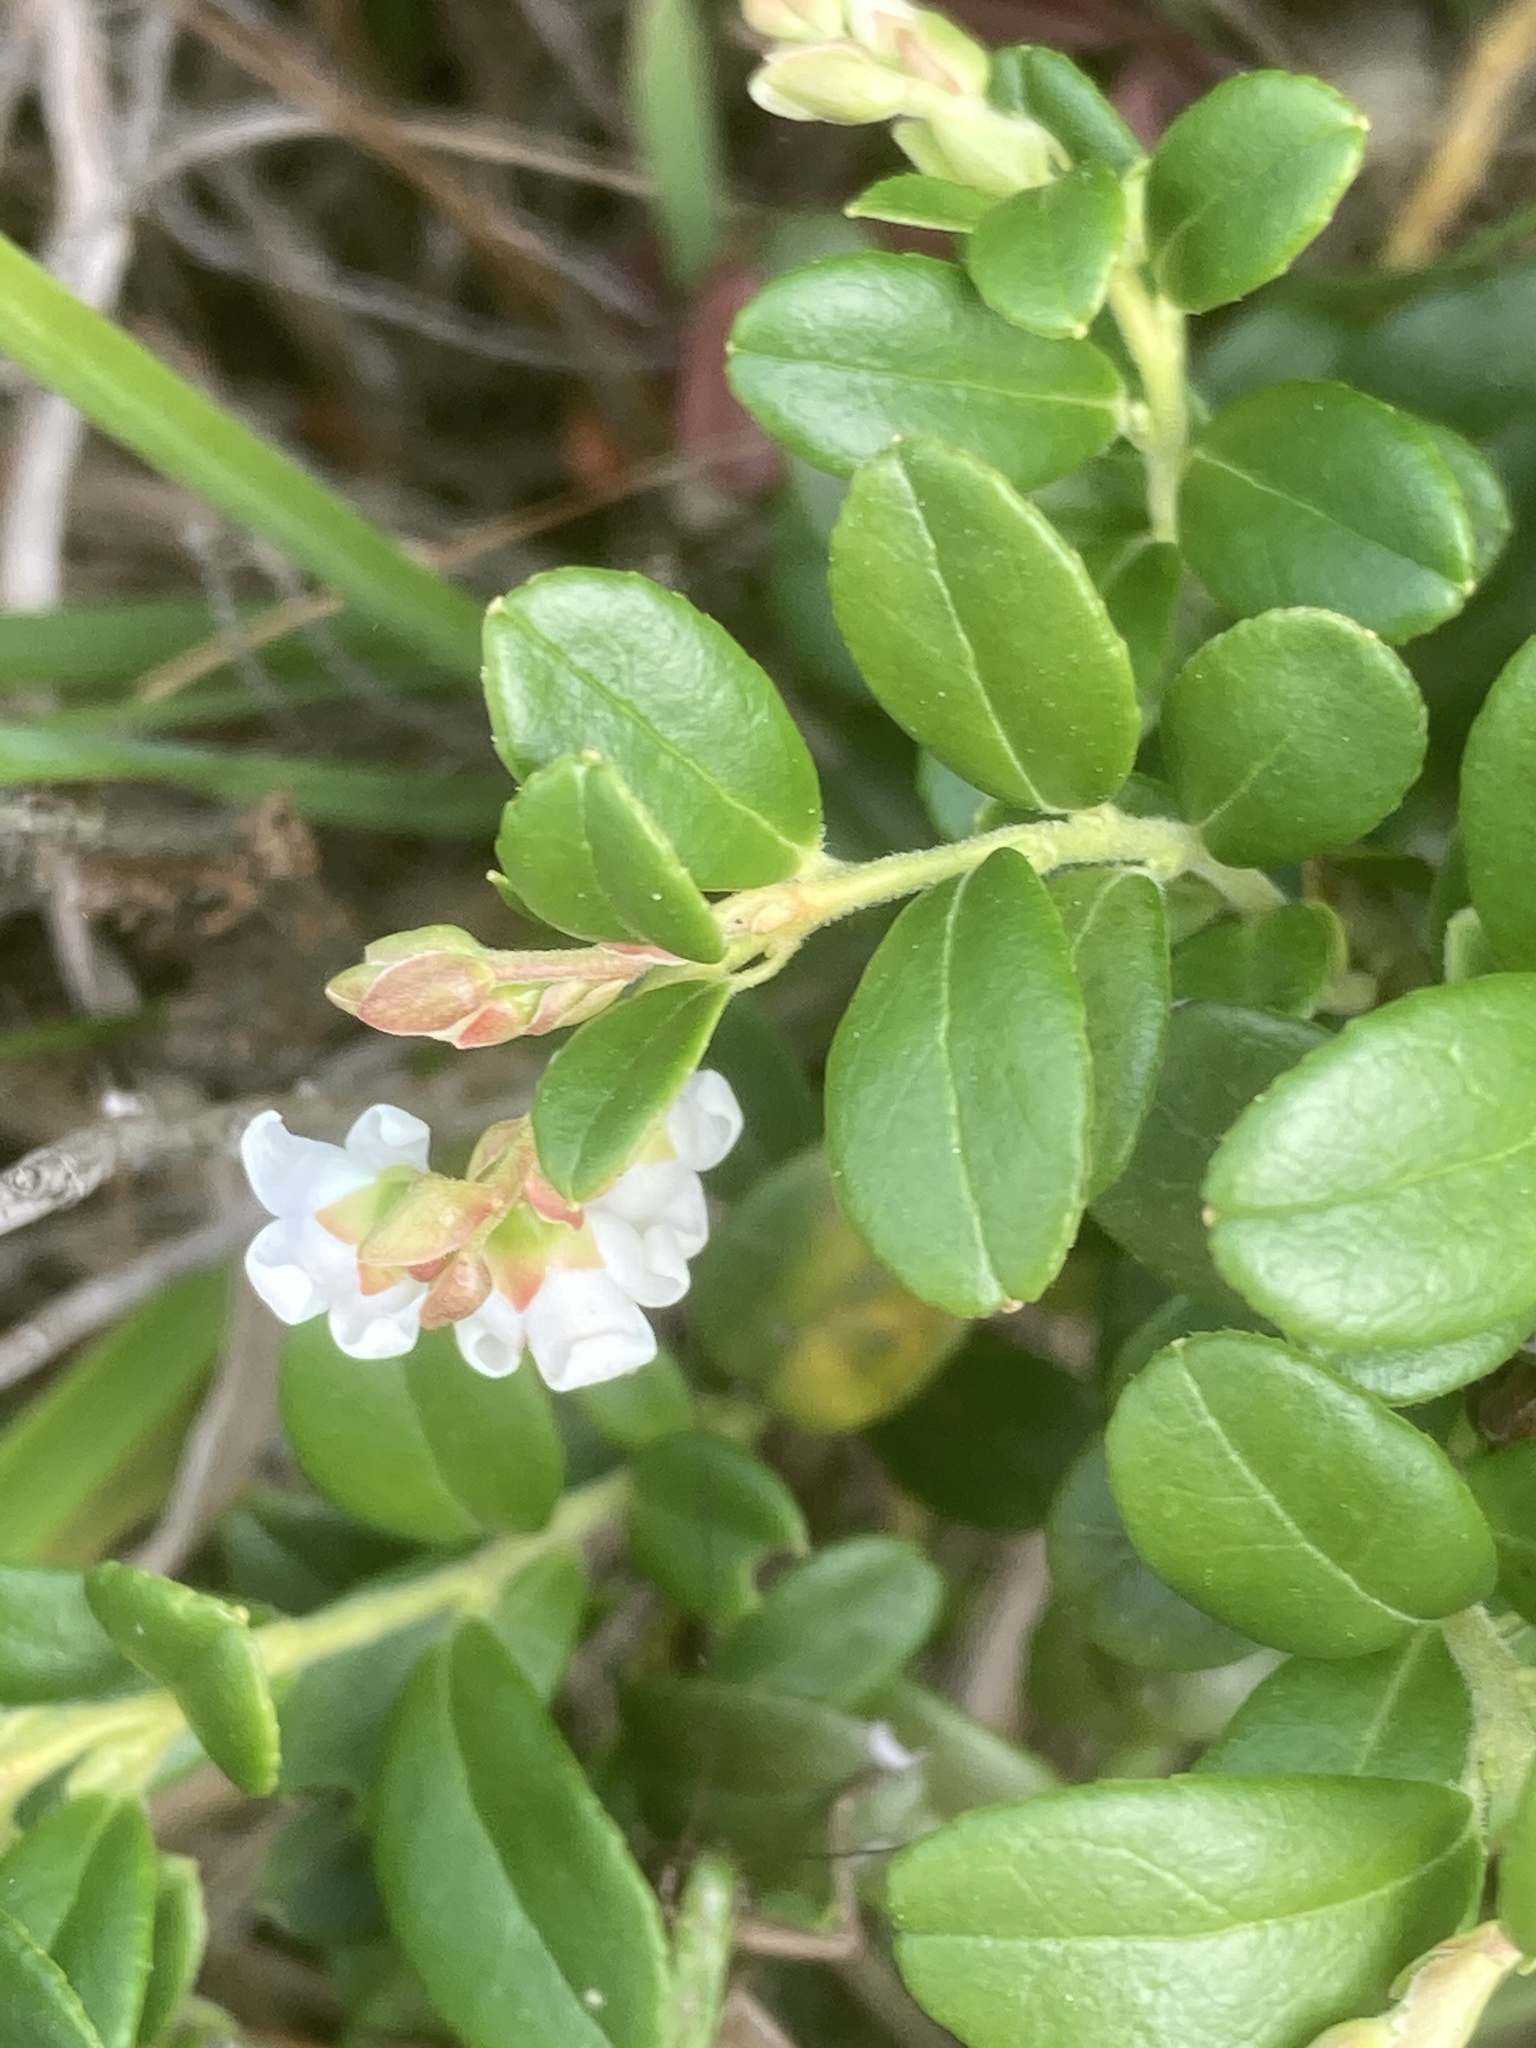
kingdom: Plantae
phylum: Tracheophyta
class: Magnoliopsida
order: Ericales
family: Ericaceae
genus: Vaccinium
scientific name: Vaccinium vitis-idaea
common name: Cowberry
